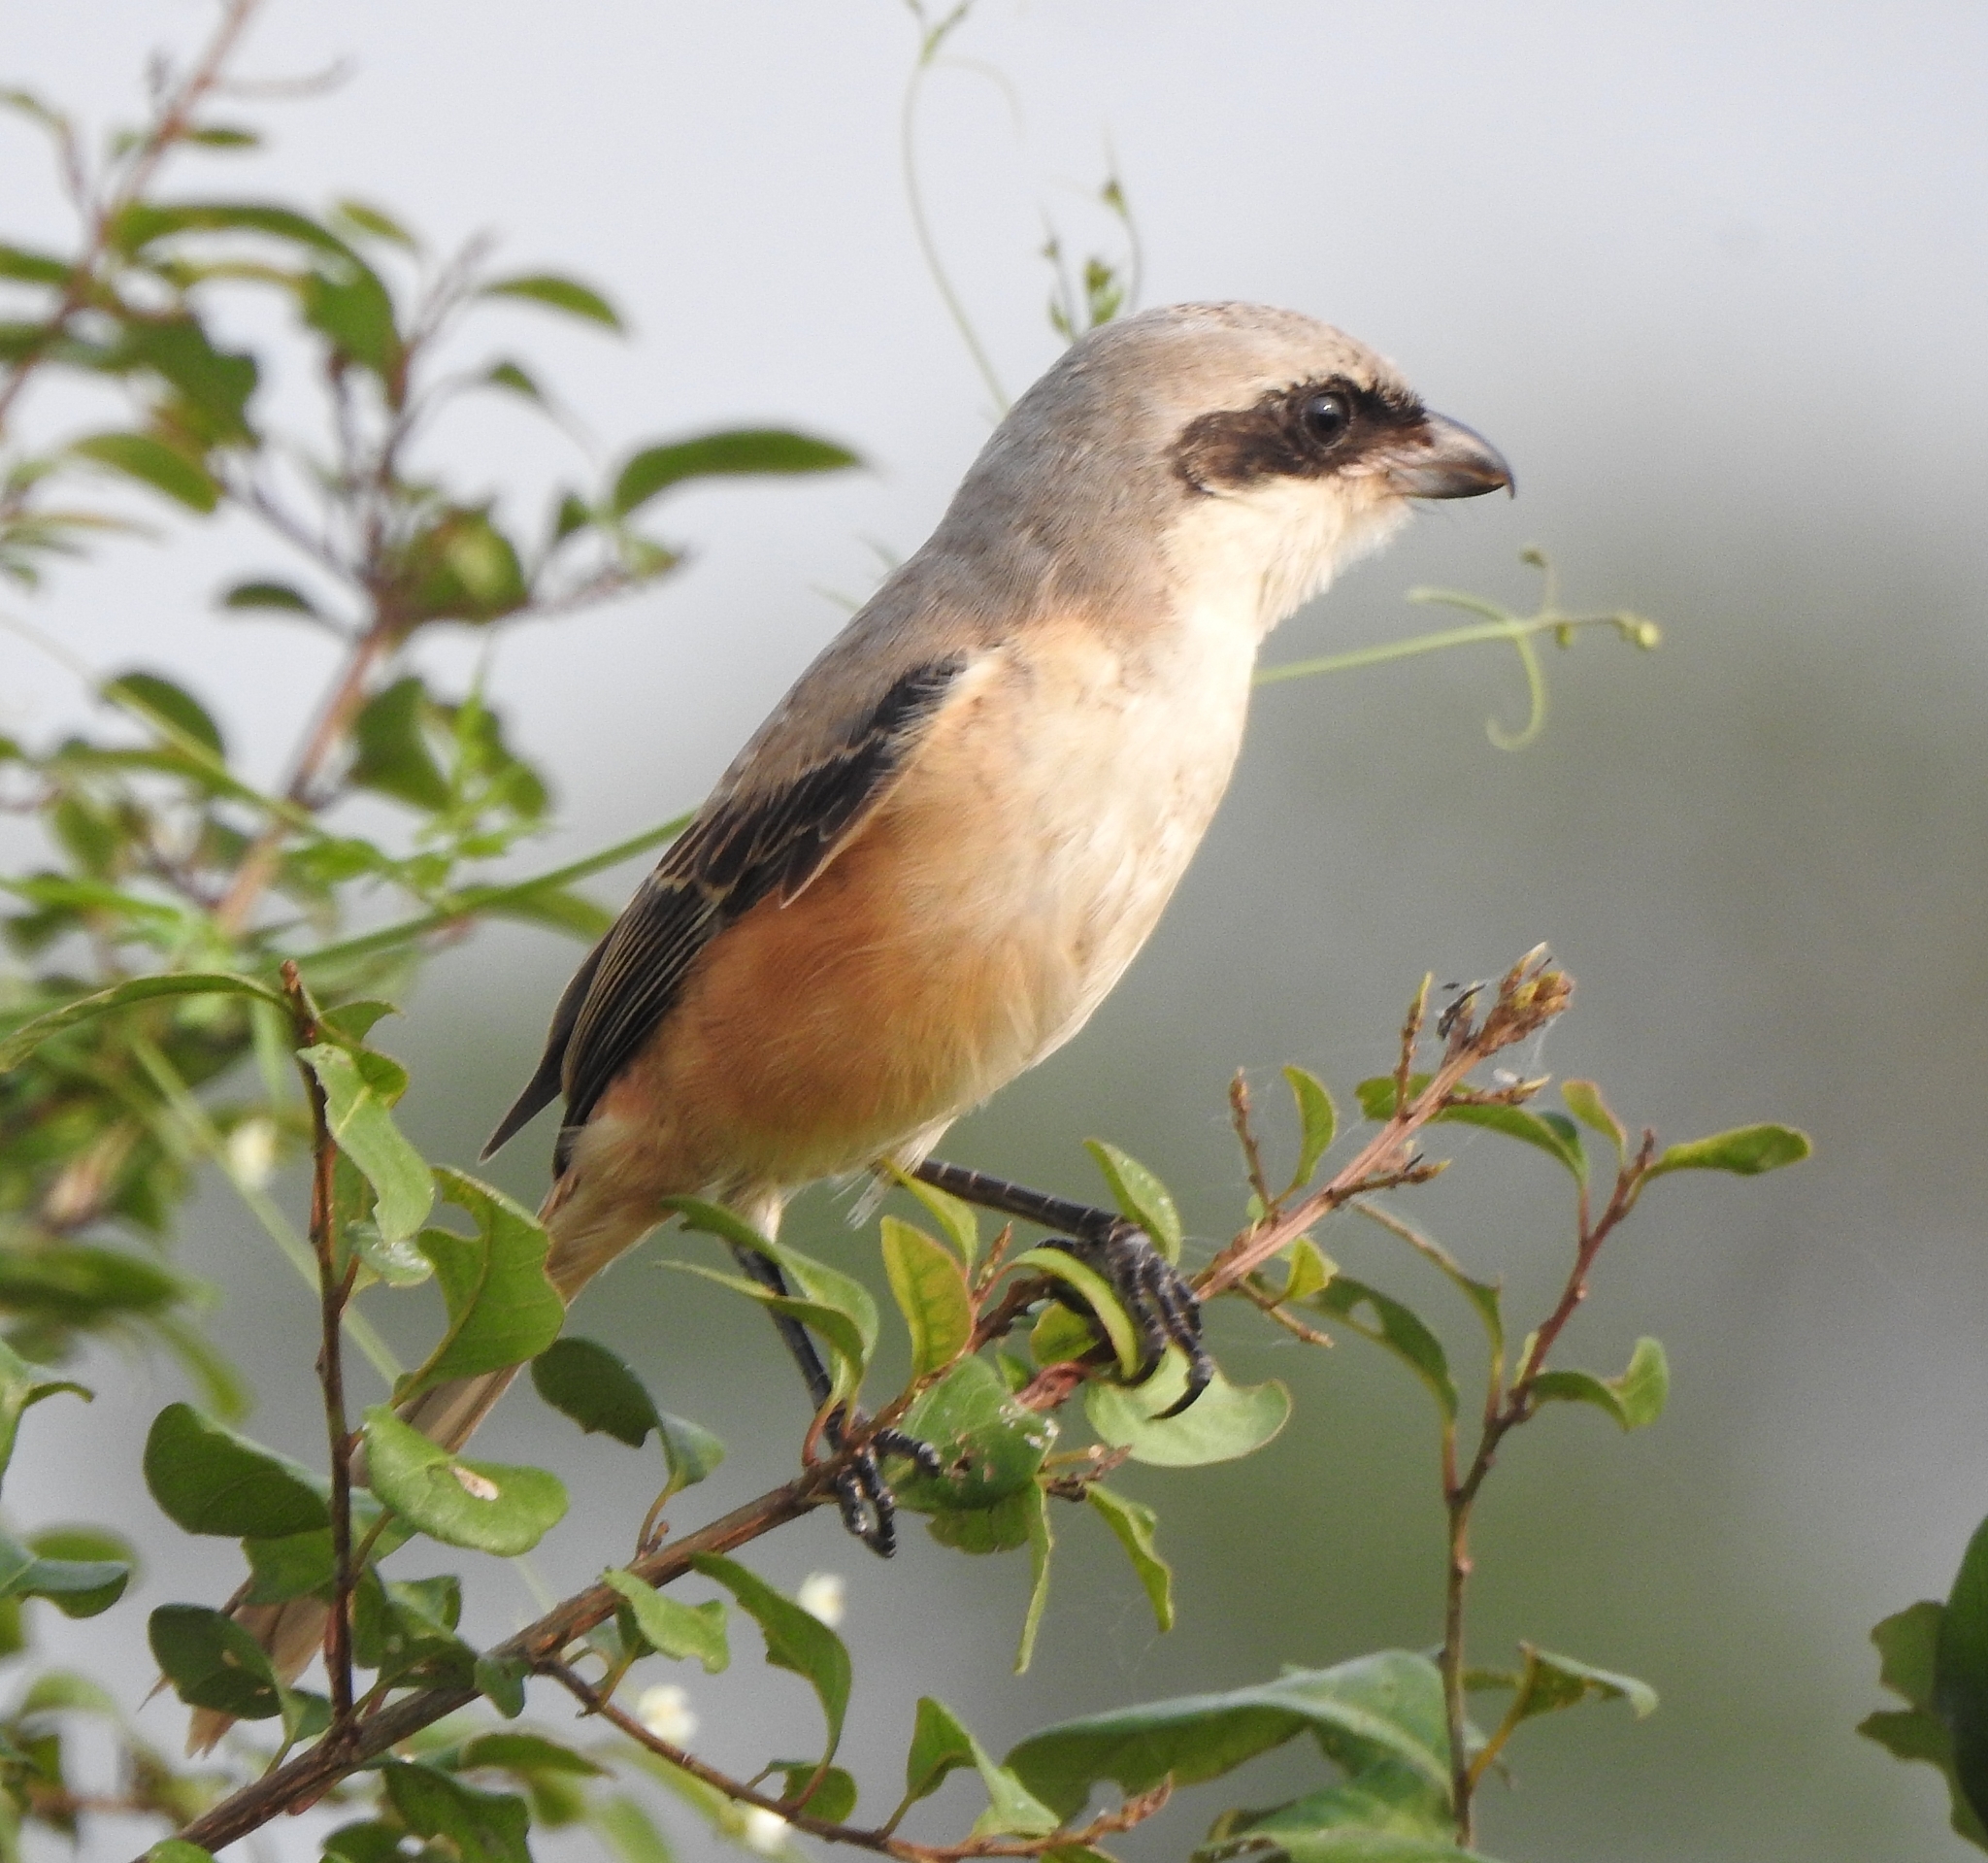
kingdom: Animalia
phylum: Chordata
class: Aves
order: Passeriformes
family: Laniidae
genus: Lanius
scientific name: Lanius schach
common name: Long-tailed shrike
